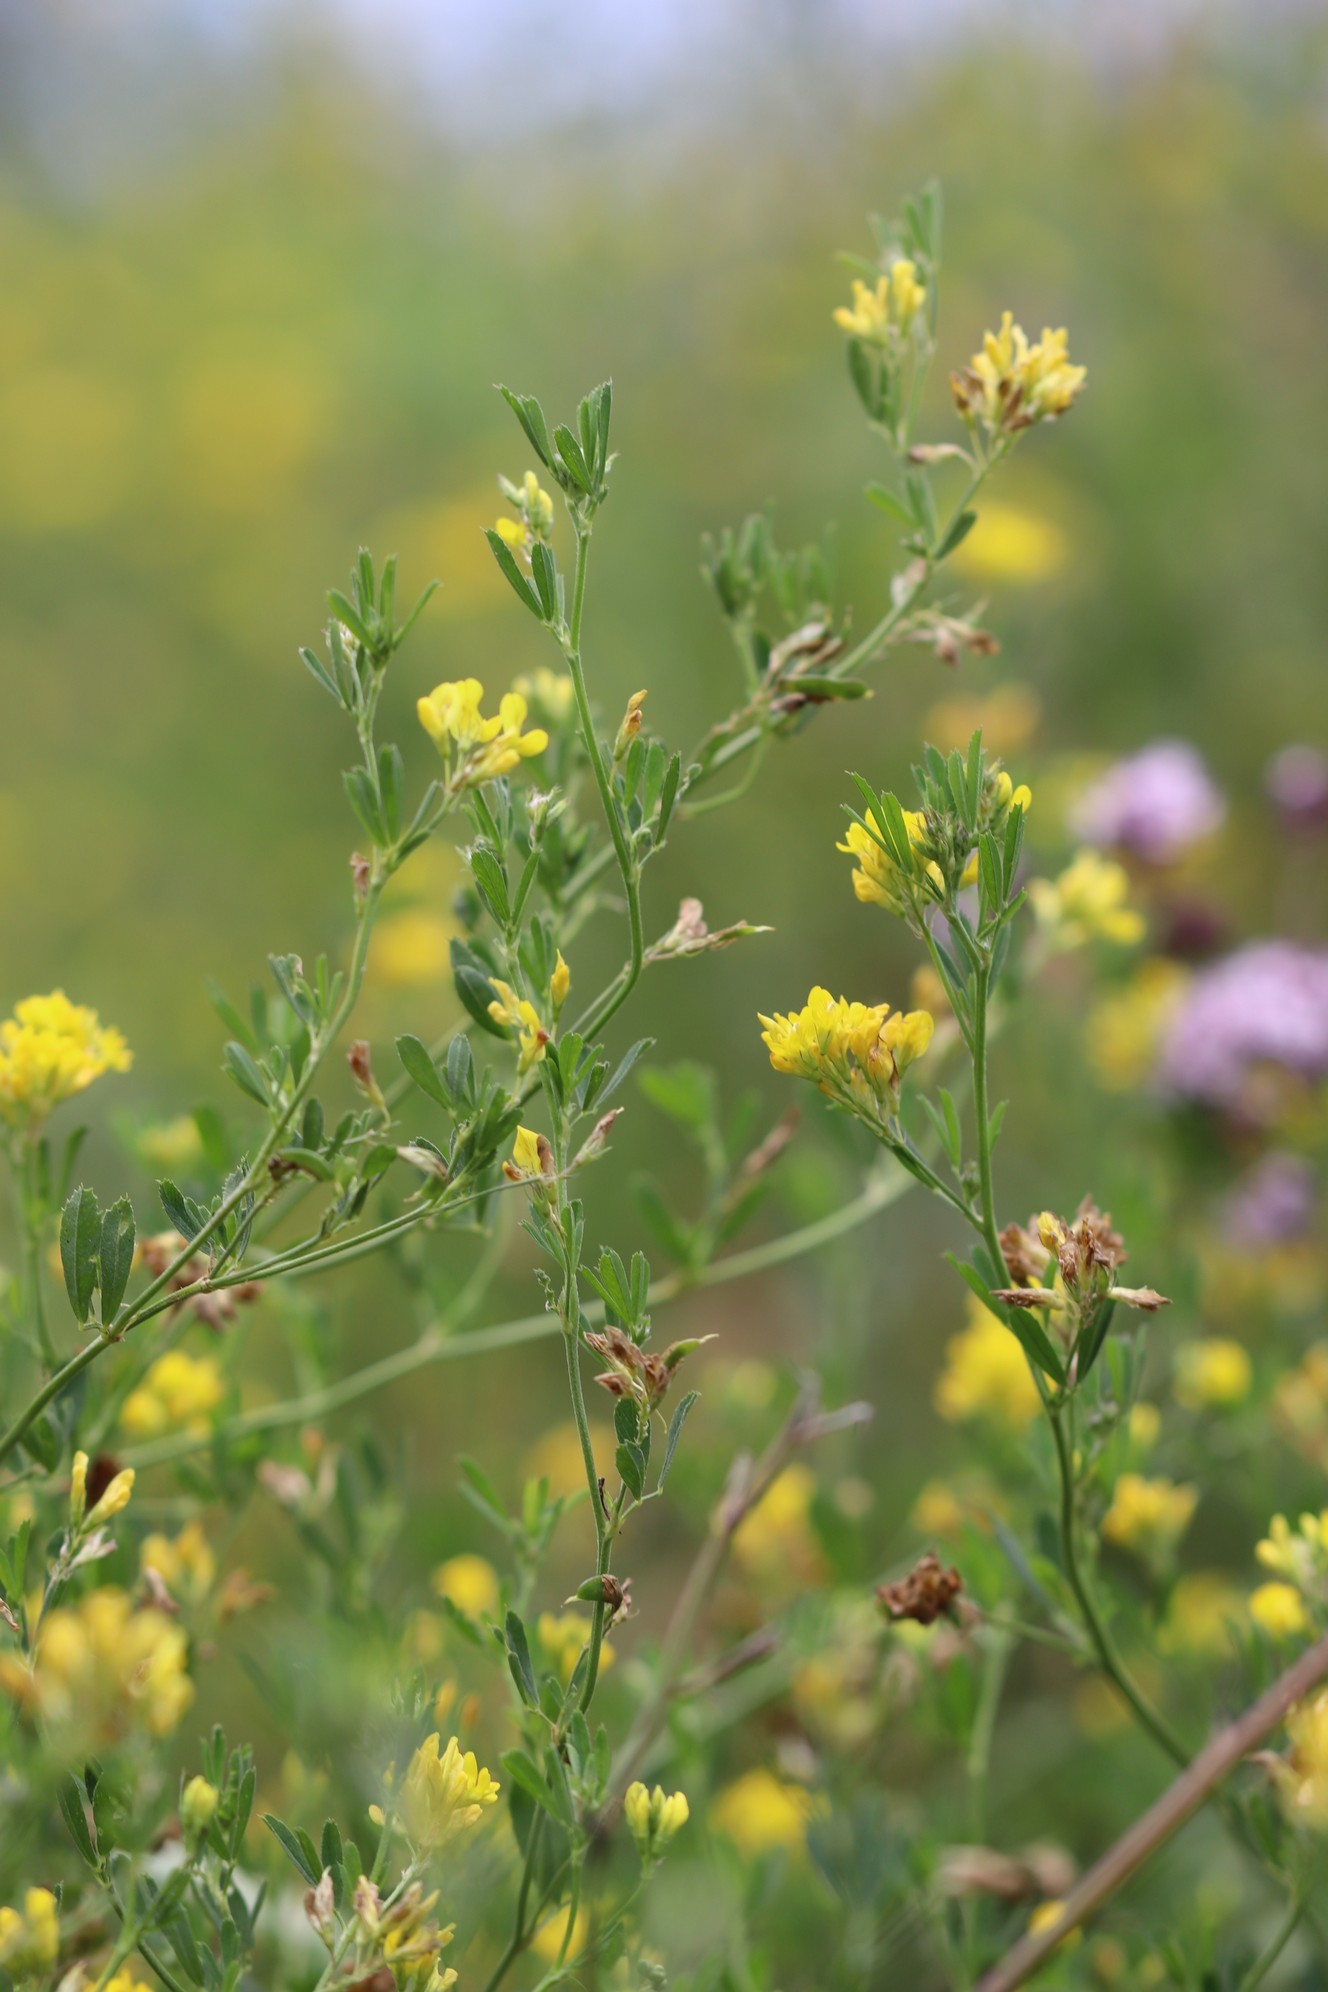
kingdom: Plantae
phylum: Tracheophyta
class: Magnoliopsida
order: Fabales
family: Fabaceae
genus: Medicago
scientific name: Medicago falcata
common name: Sickle medick
